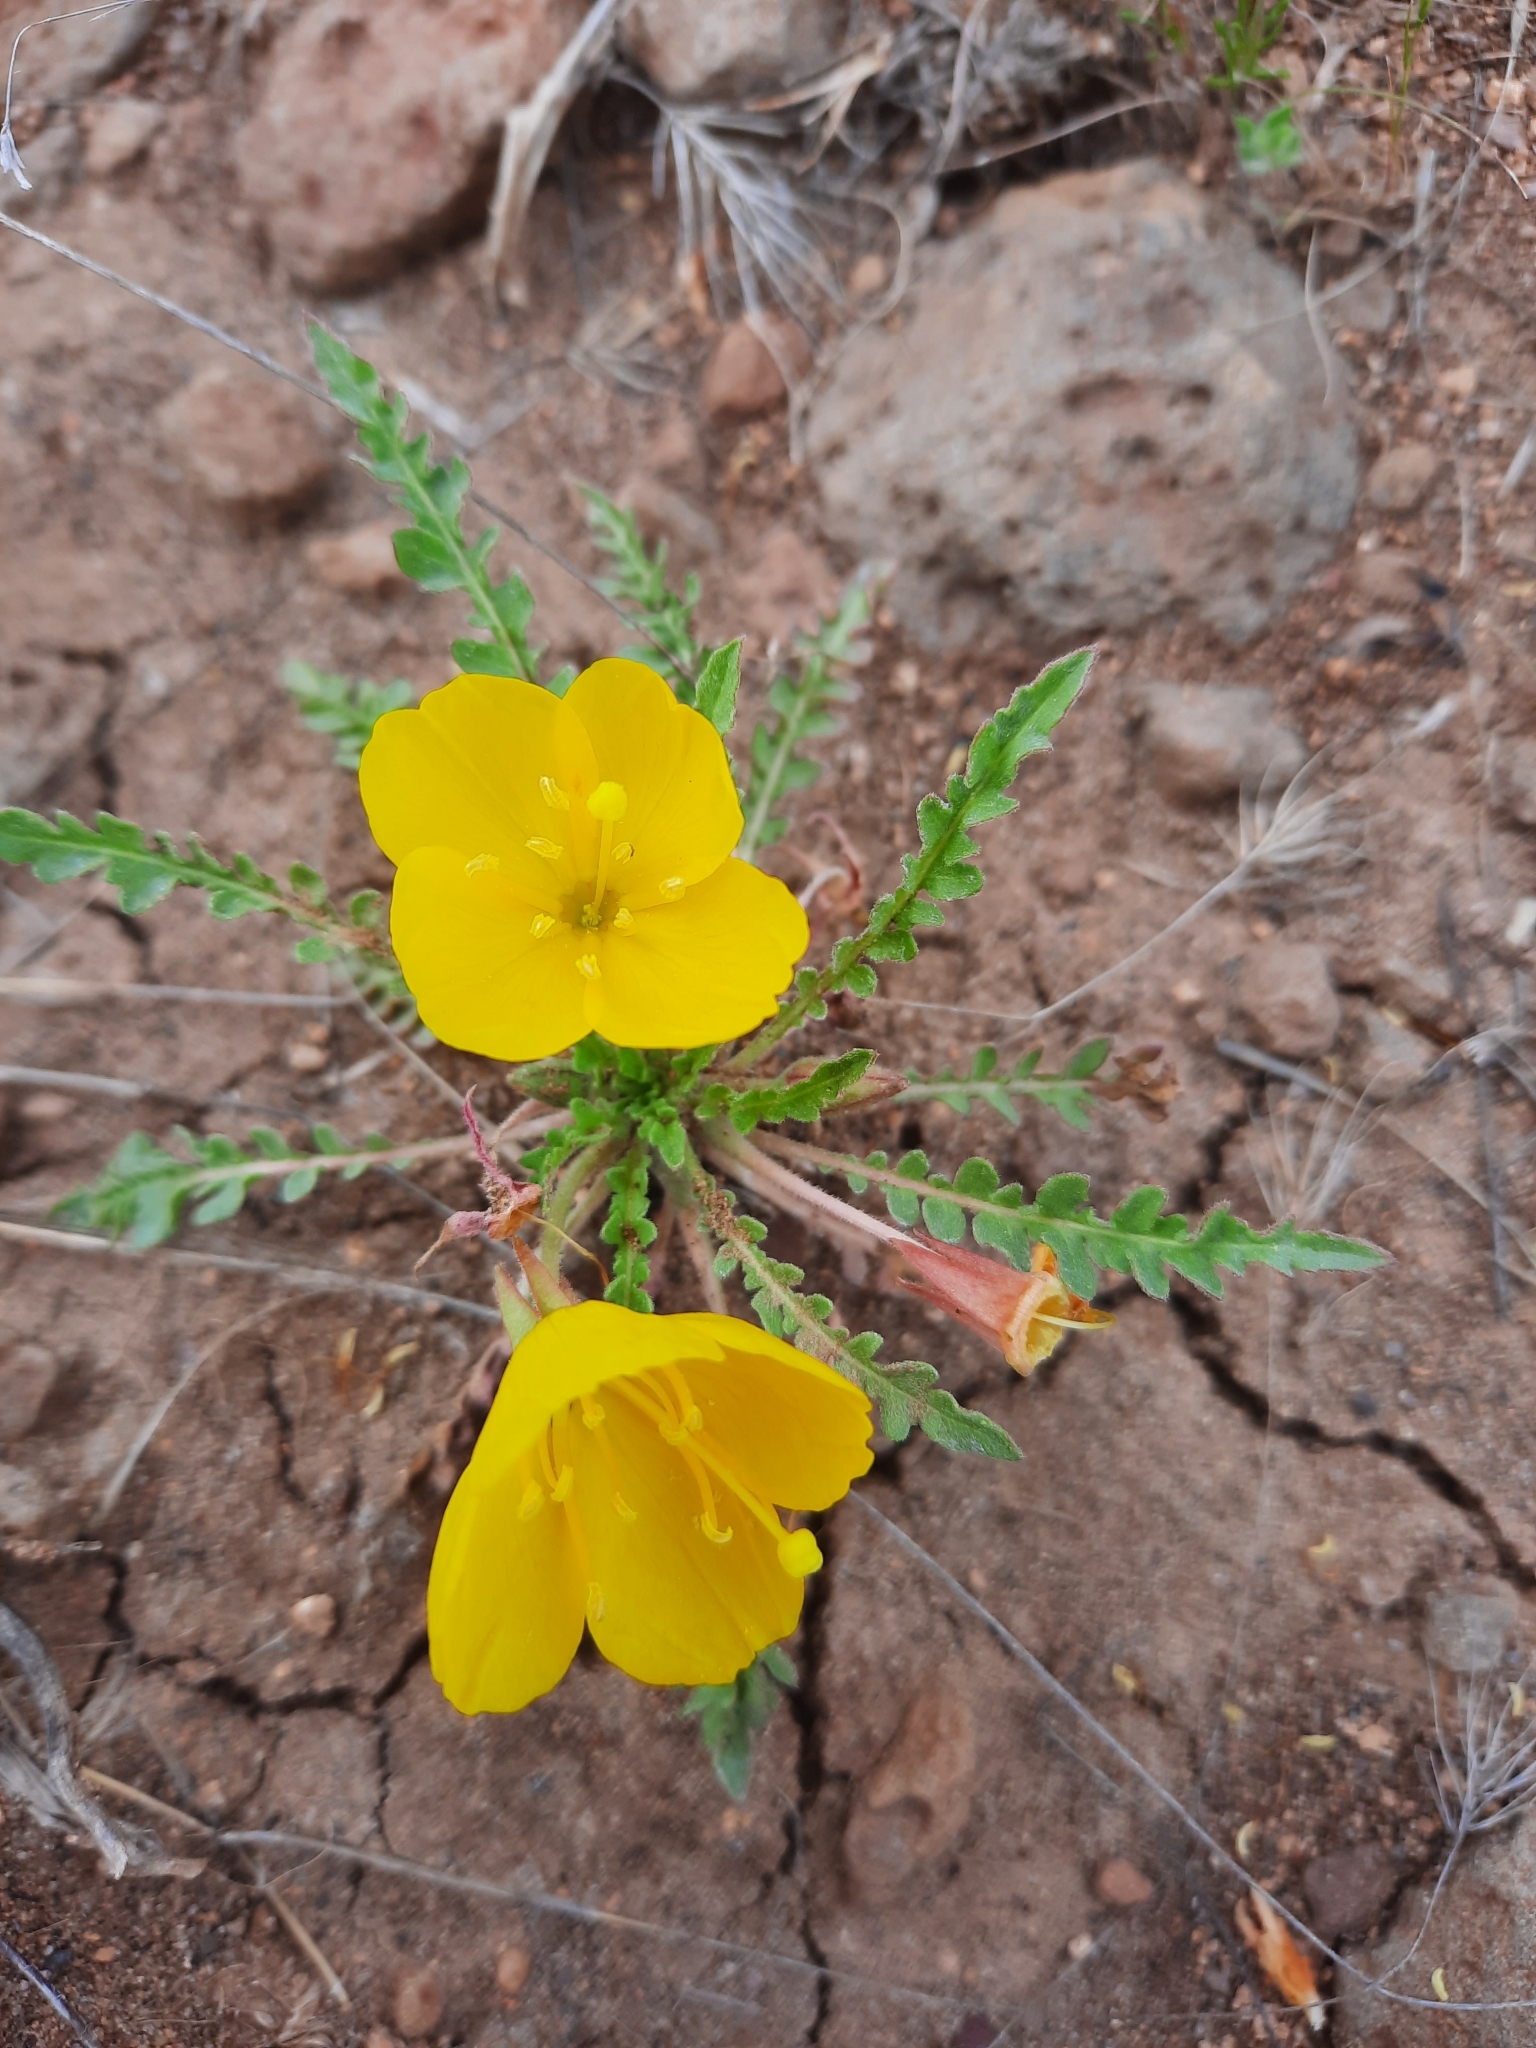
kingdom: Plantae
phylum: Tracheophyta
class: Magnoliopsida
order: Myrtales
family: Onagraceae
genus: Taraxia
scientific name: Taraxia tanacetifolia
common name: Tansyleaf evening primrose
